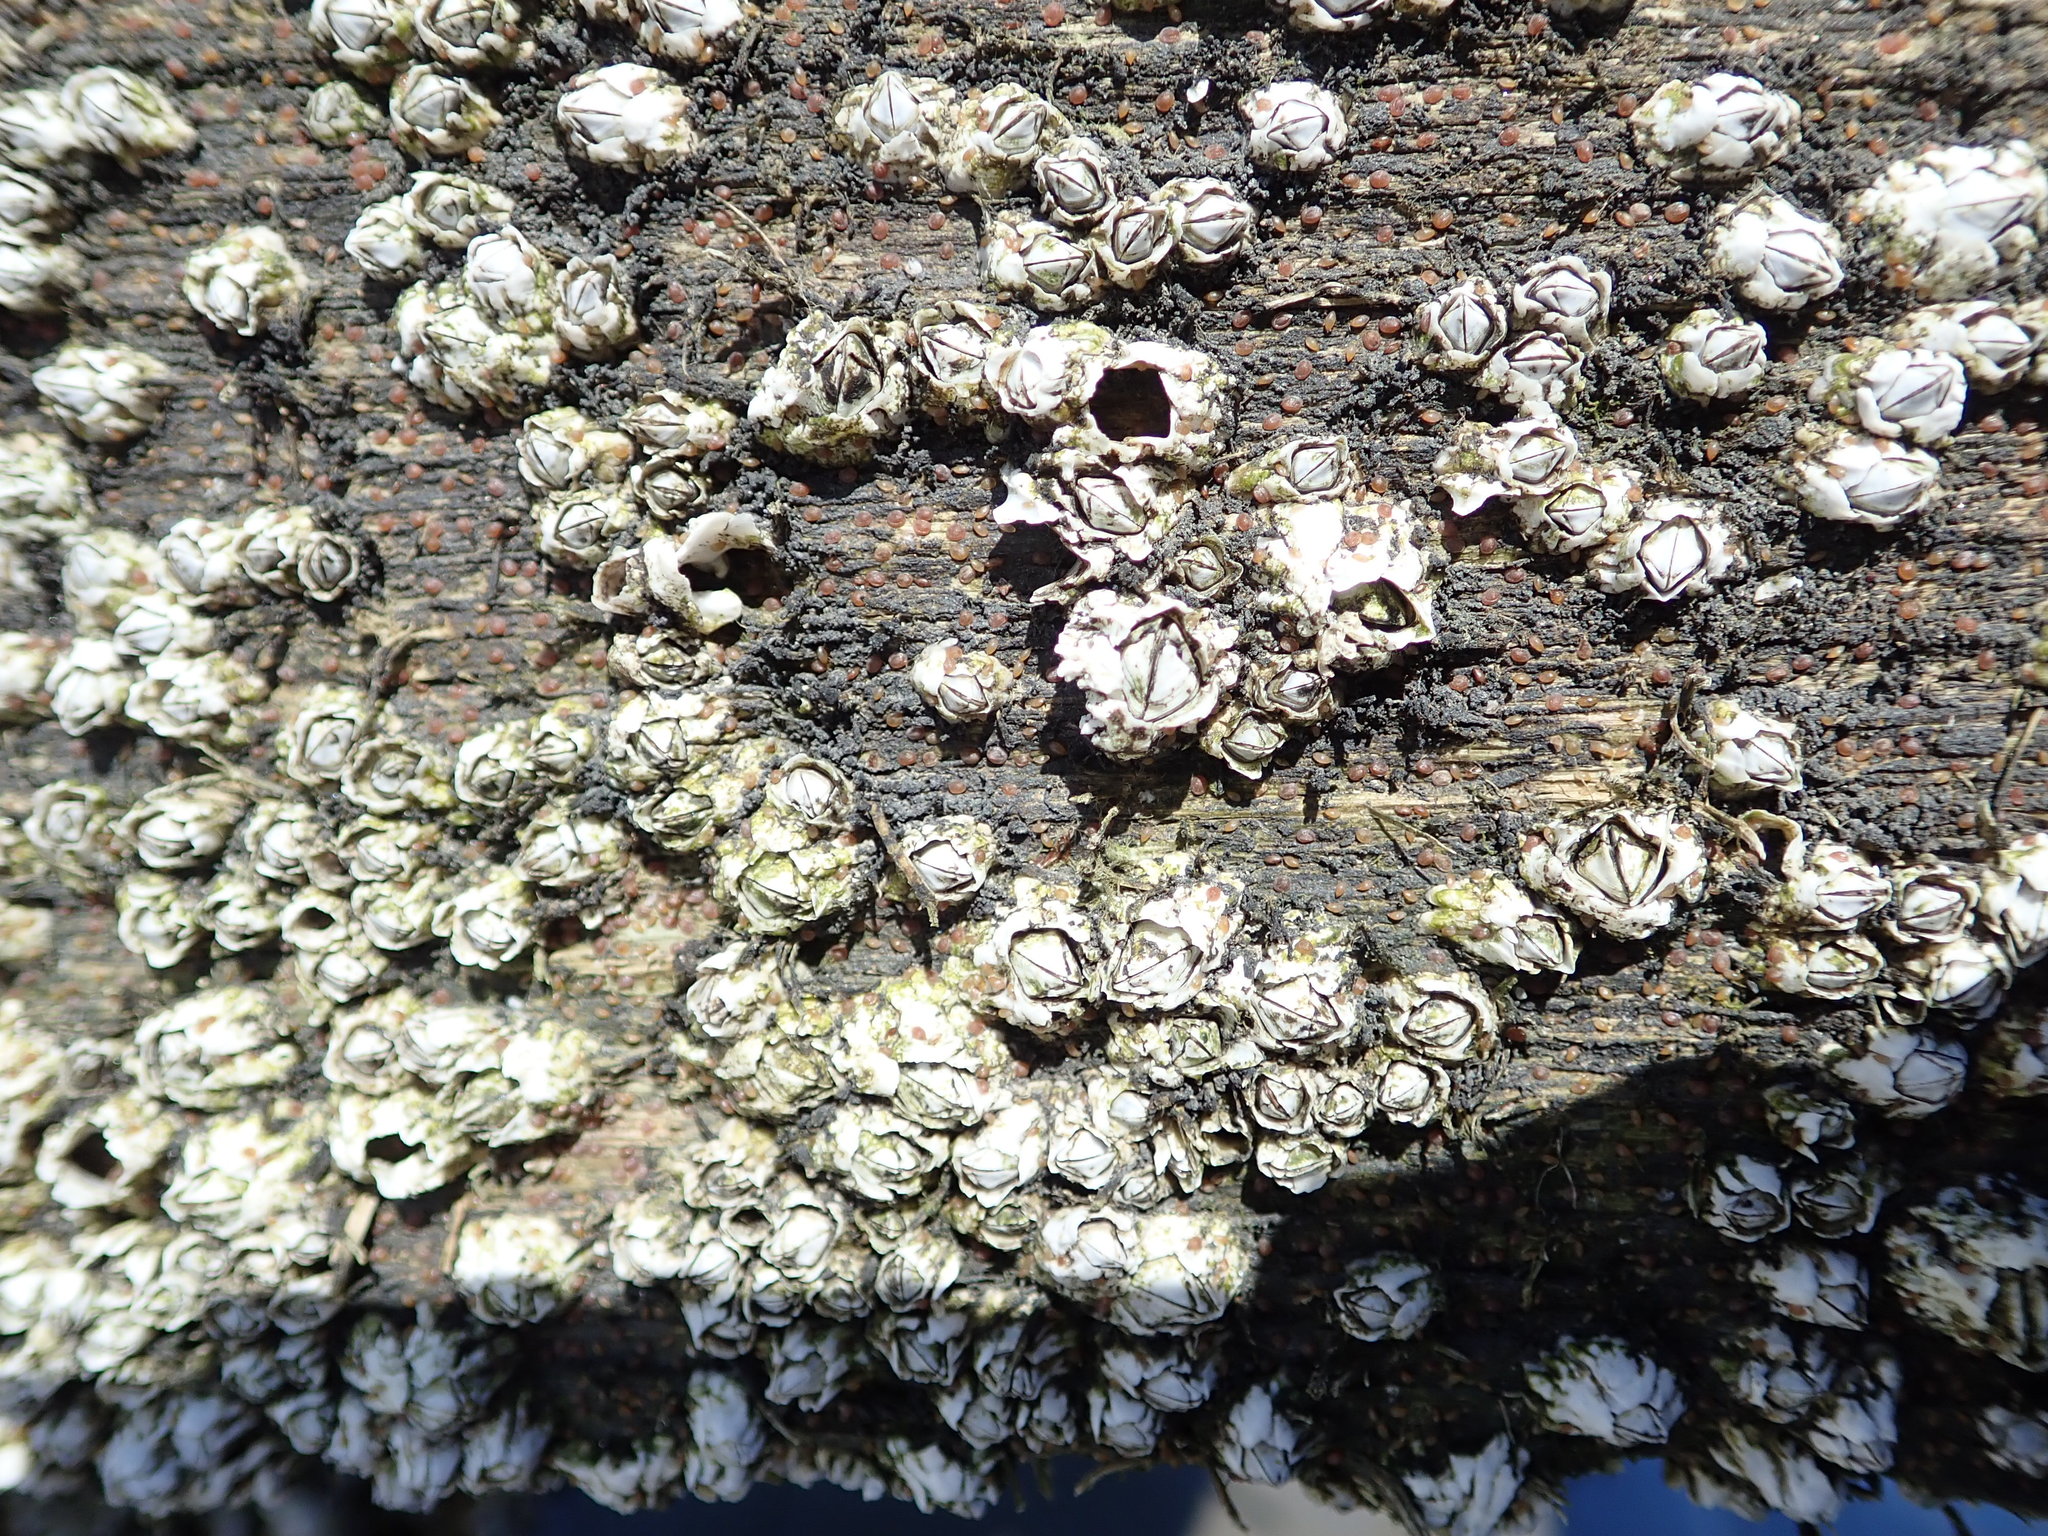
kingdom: Animalia
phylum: Arthropoda
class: Maxillopoda
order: Sessilia
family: Archaeobalanidae
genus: Semibalanus
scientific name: Semibalanus balanoides
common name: Acorn barnacle
